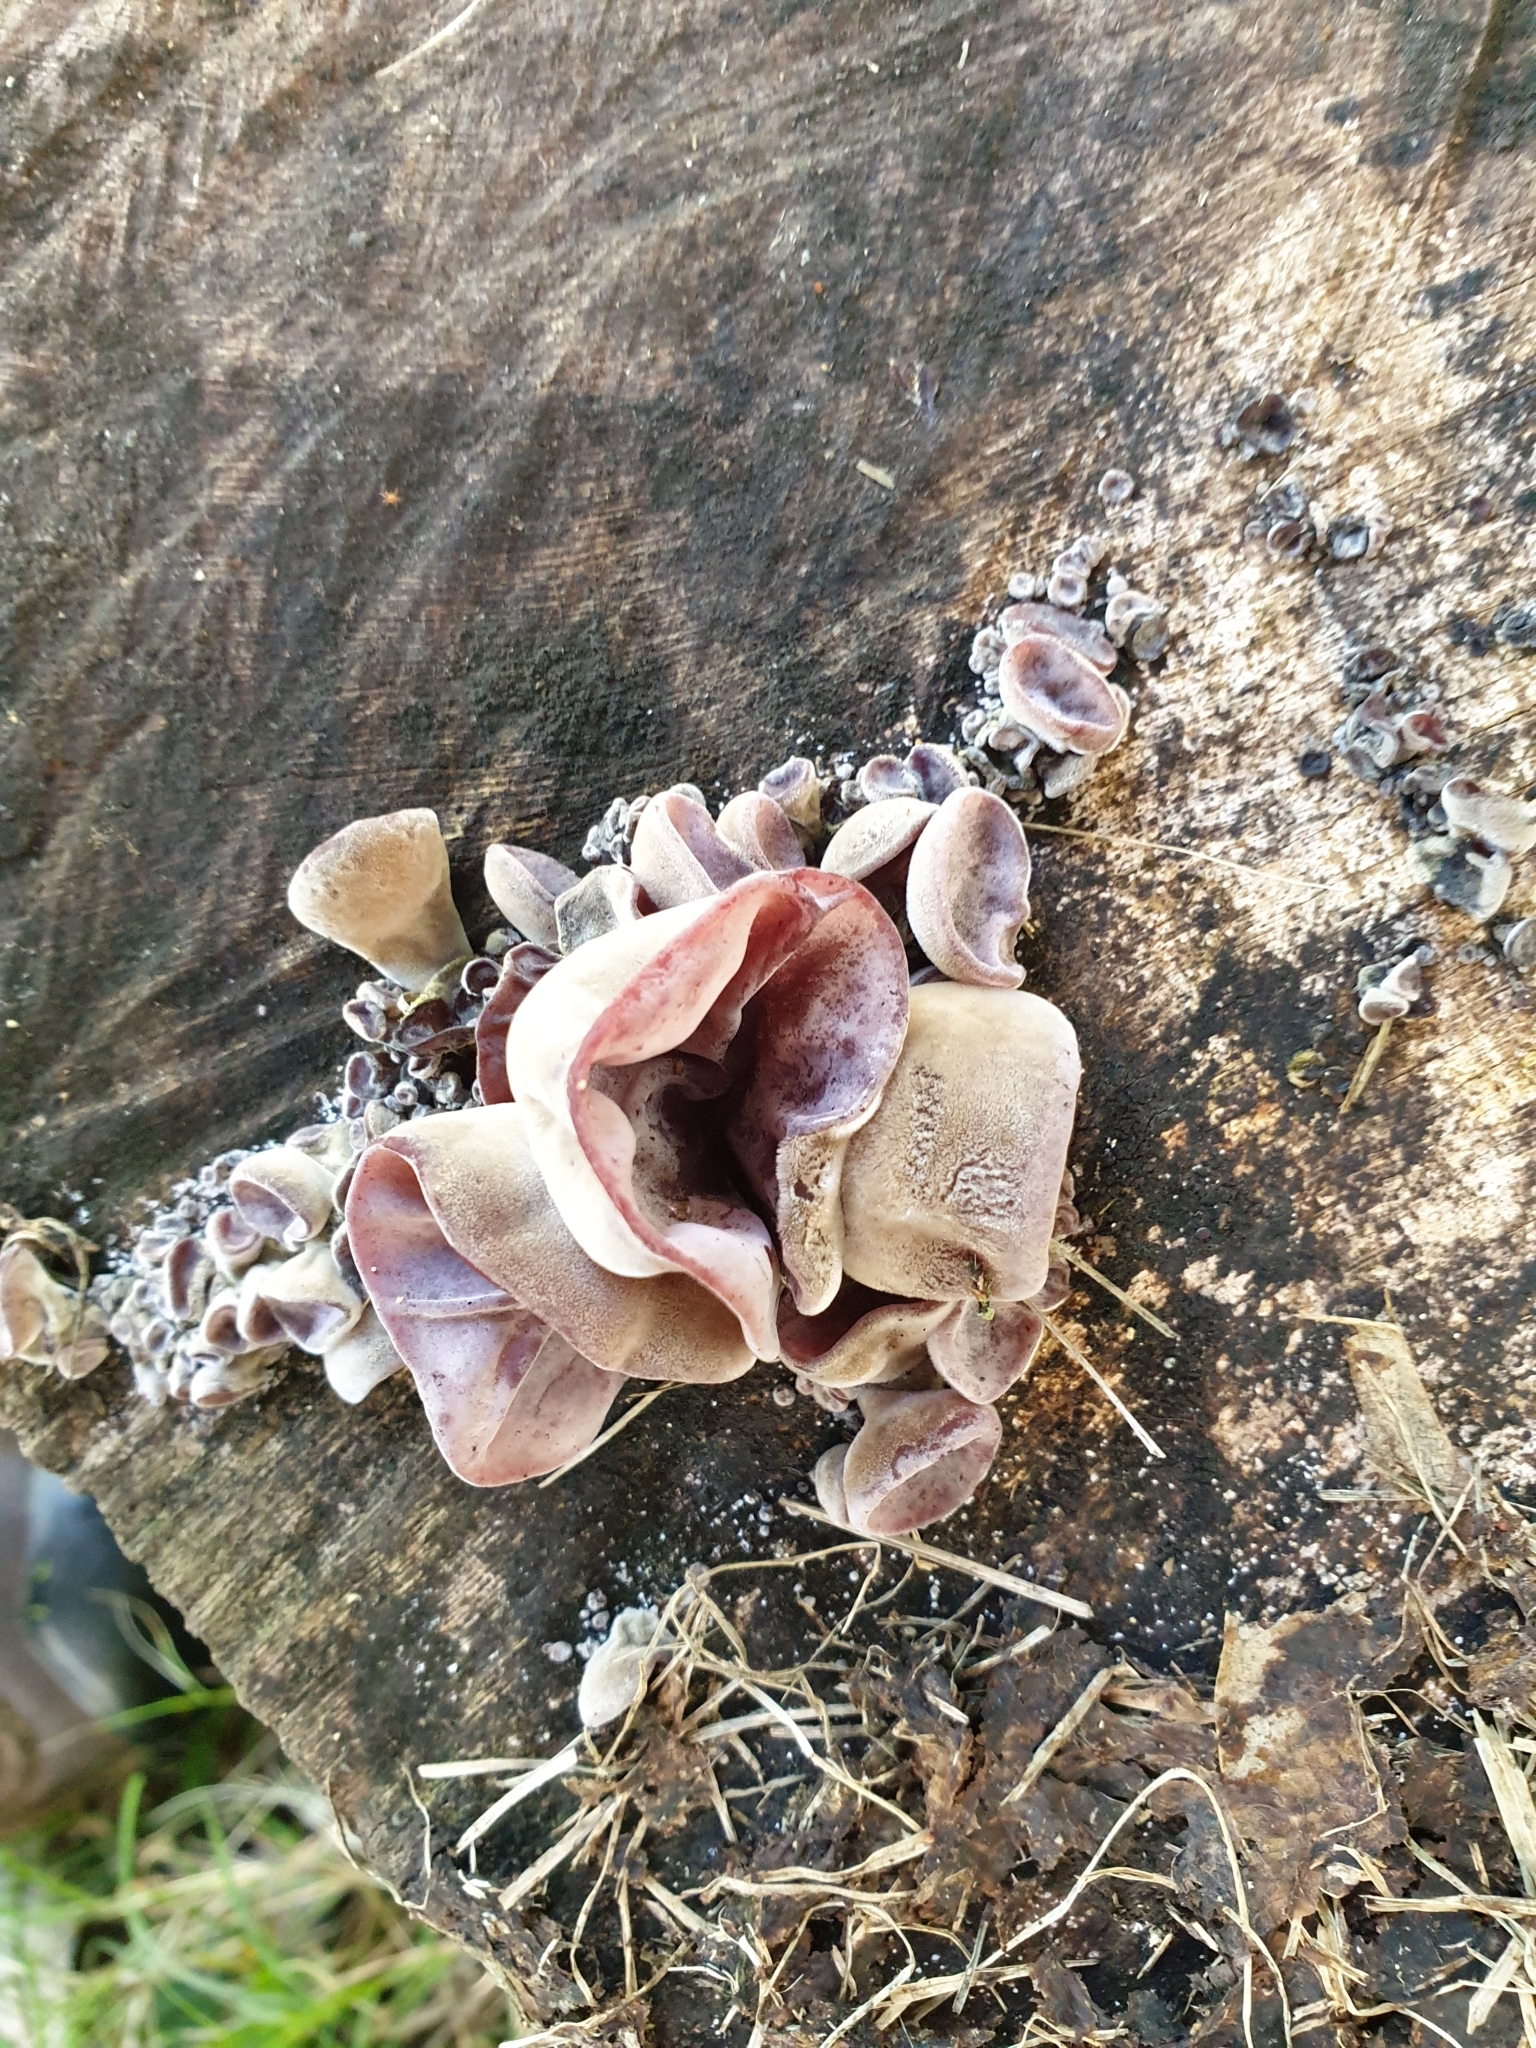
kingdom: Fungi
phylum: Basidiomycota
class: Agaricomycetes
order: Auriculariales
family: Auriculariaceae
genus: Auricularia
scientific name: Auricularia cornea
